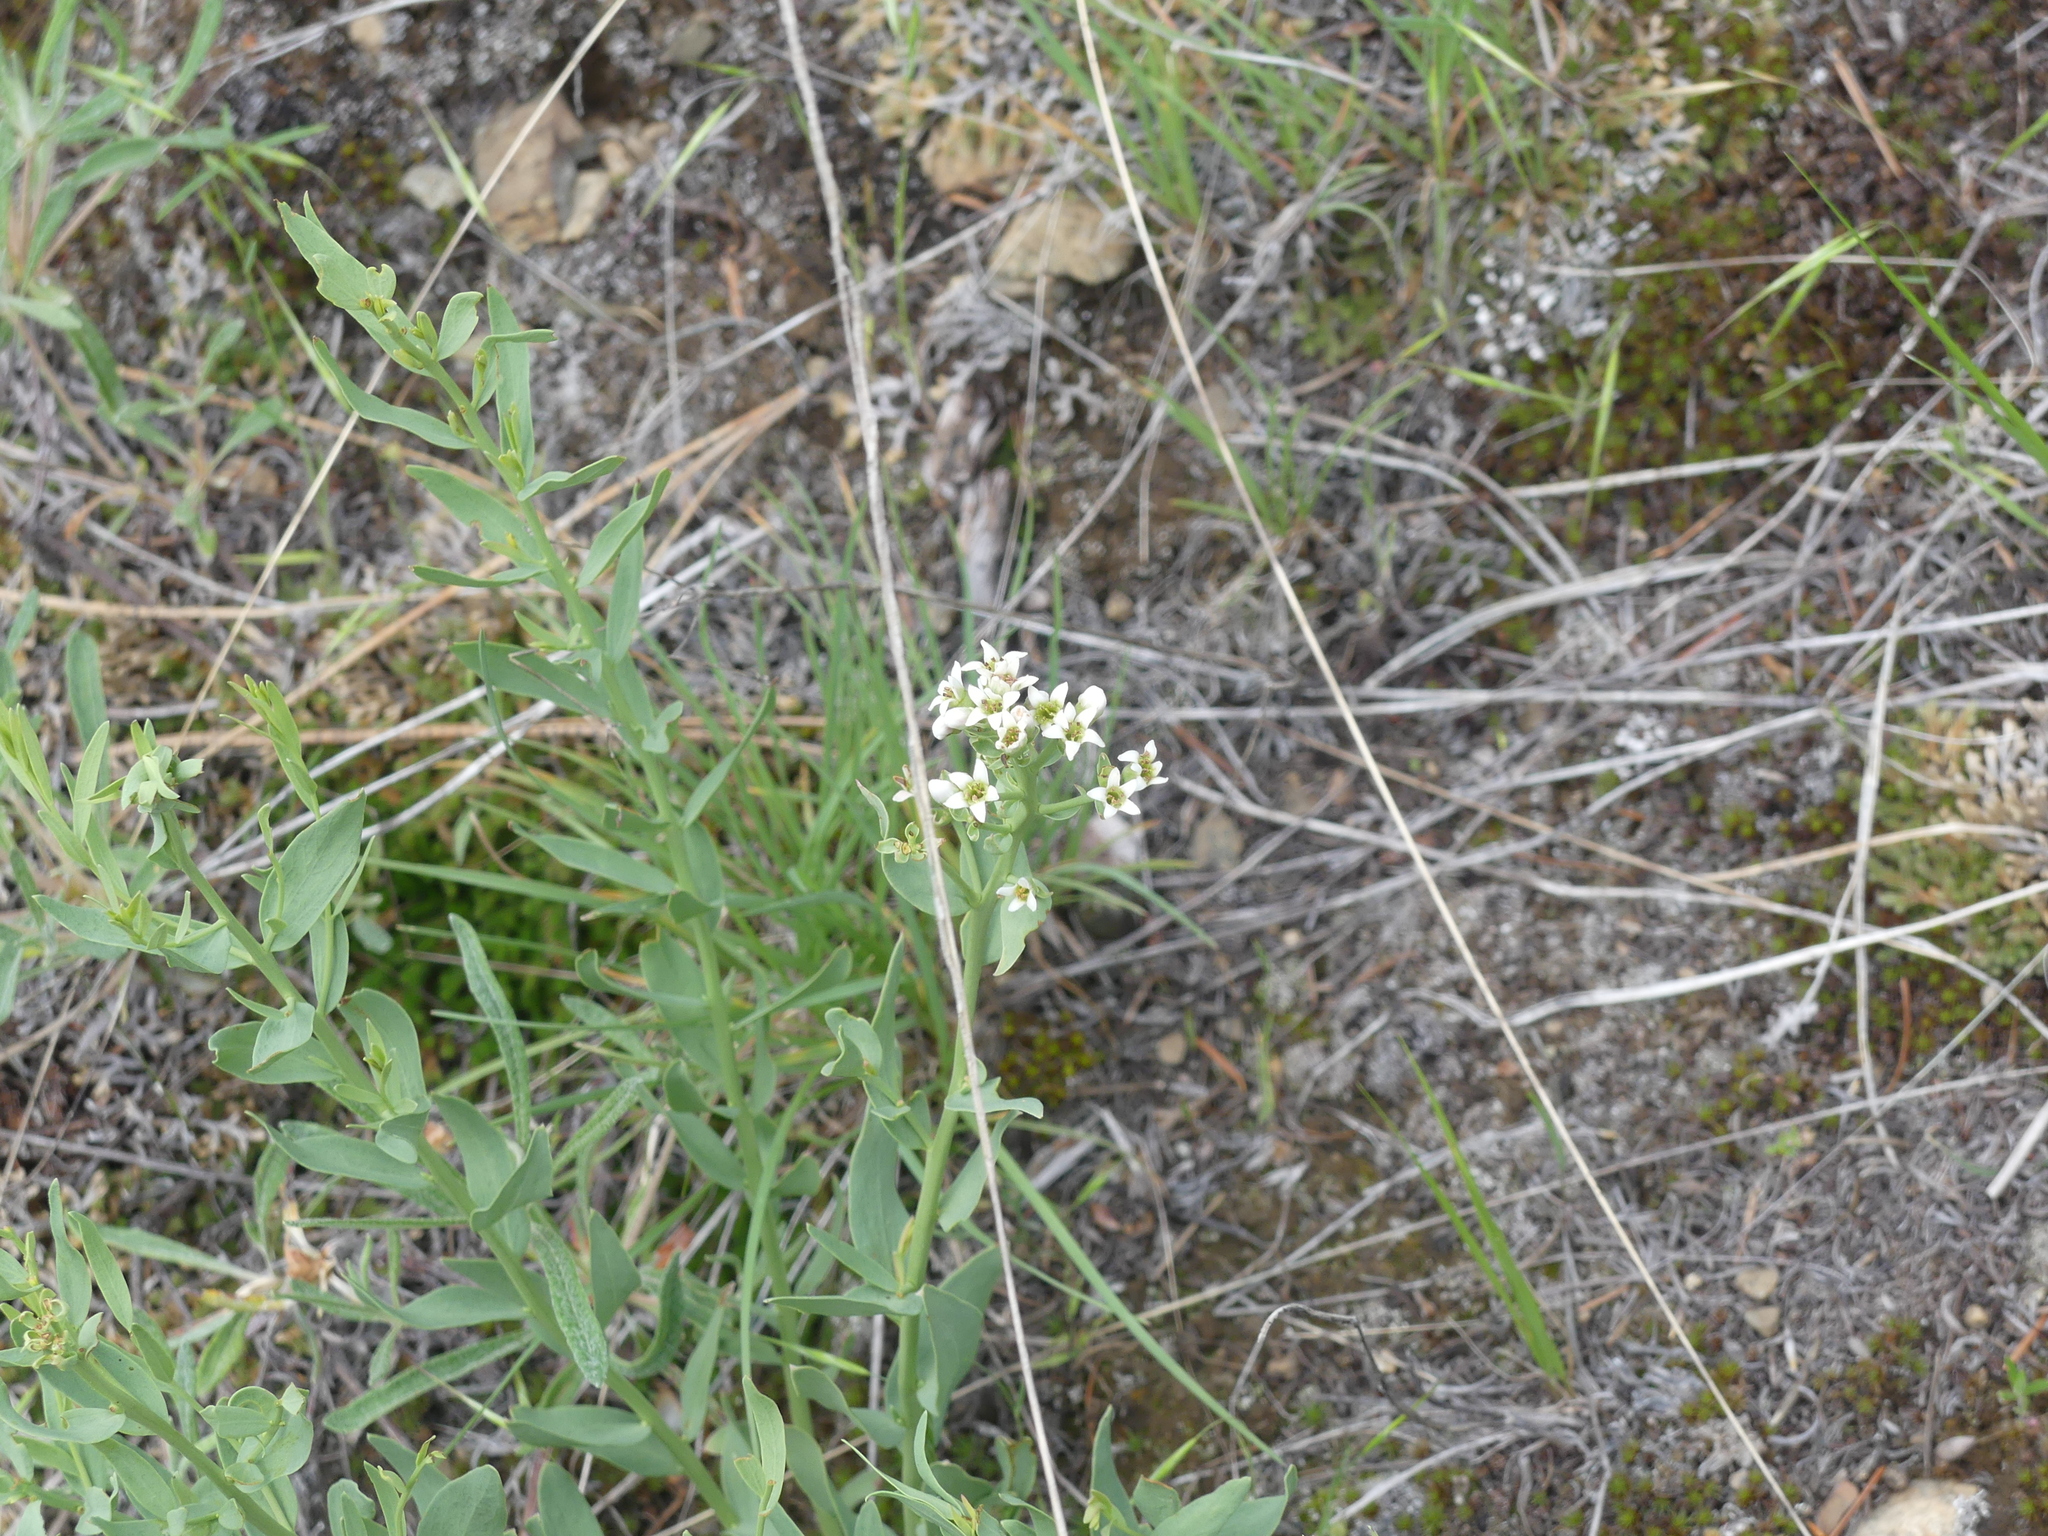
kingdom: Plantae
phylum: Tracheophyta
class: Magnoliopsida
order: Santalales
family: Comandraceae
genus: Comandra
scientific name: Comandra umbellata
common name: Bastard toadflax
